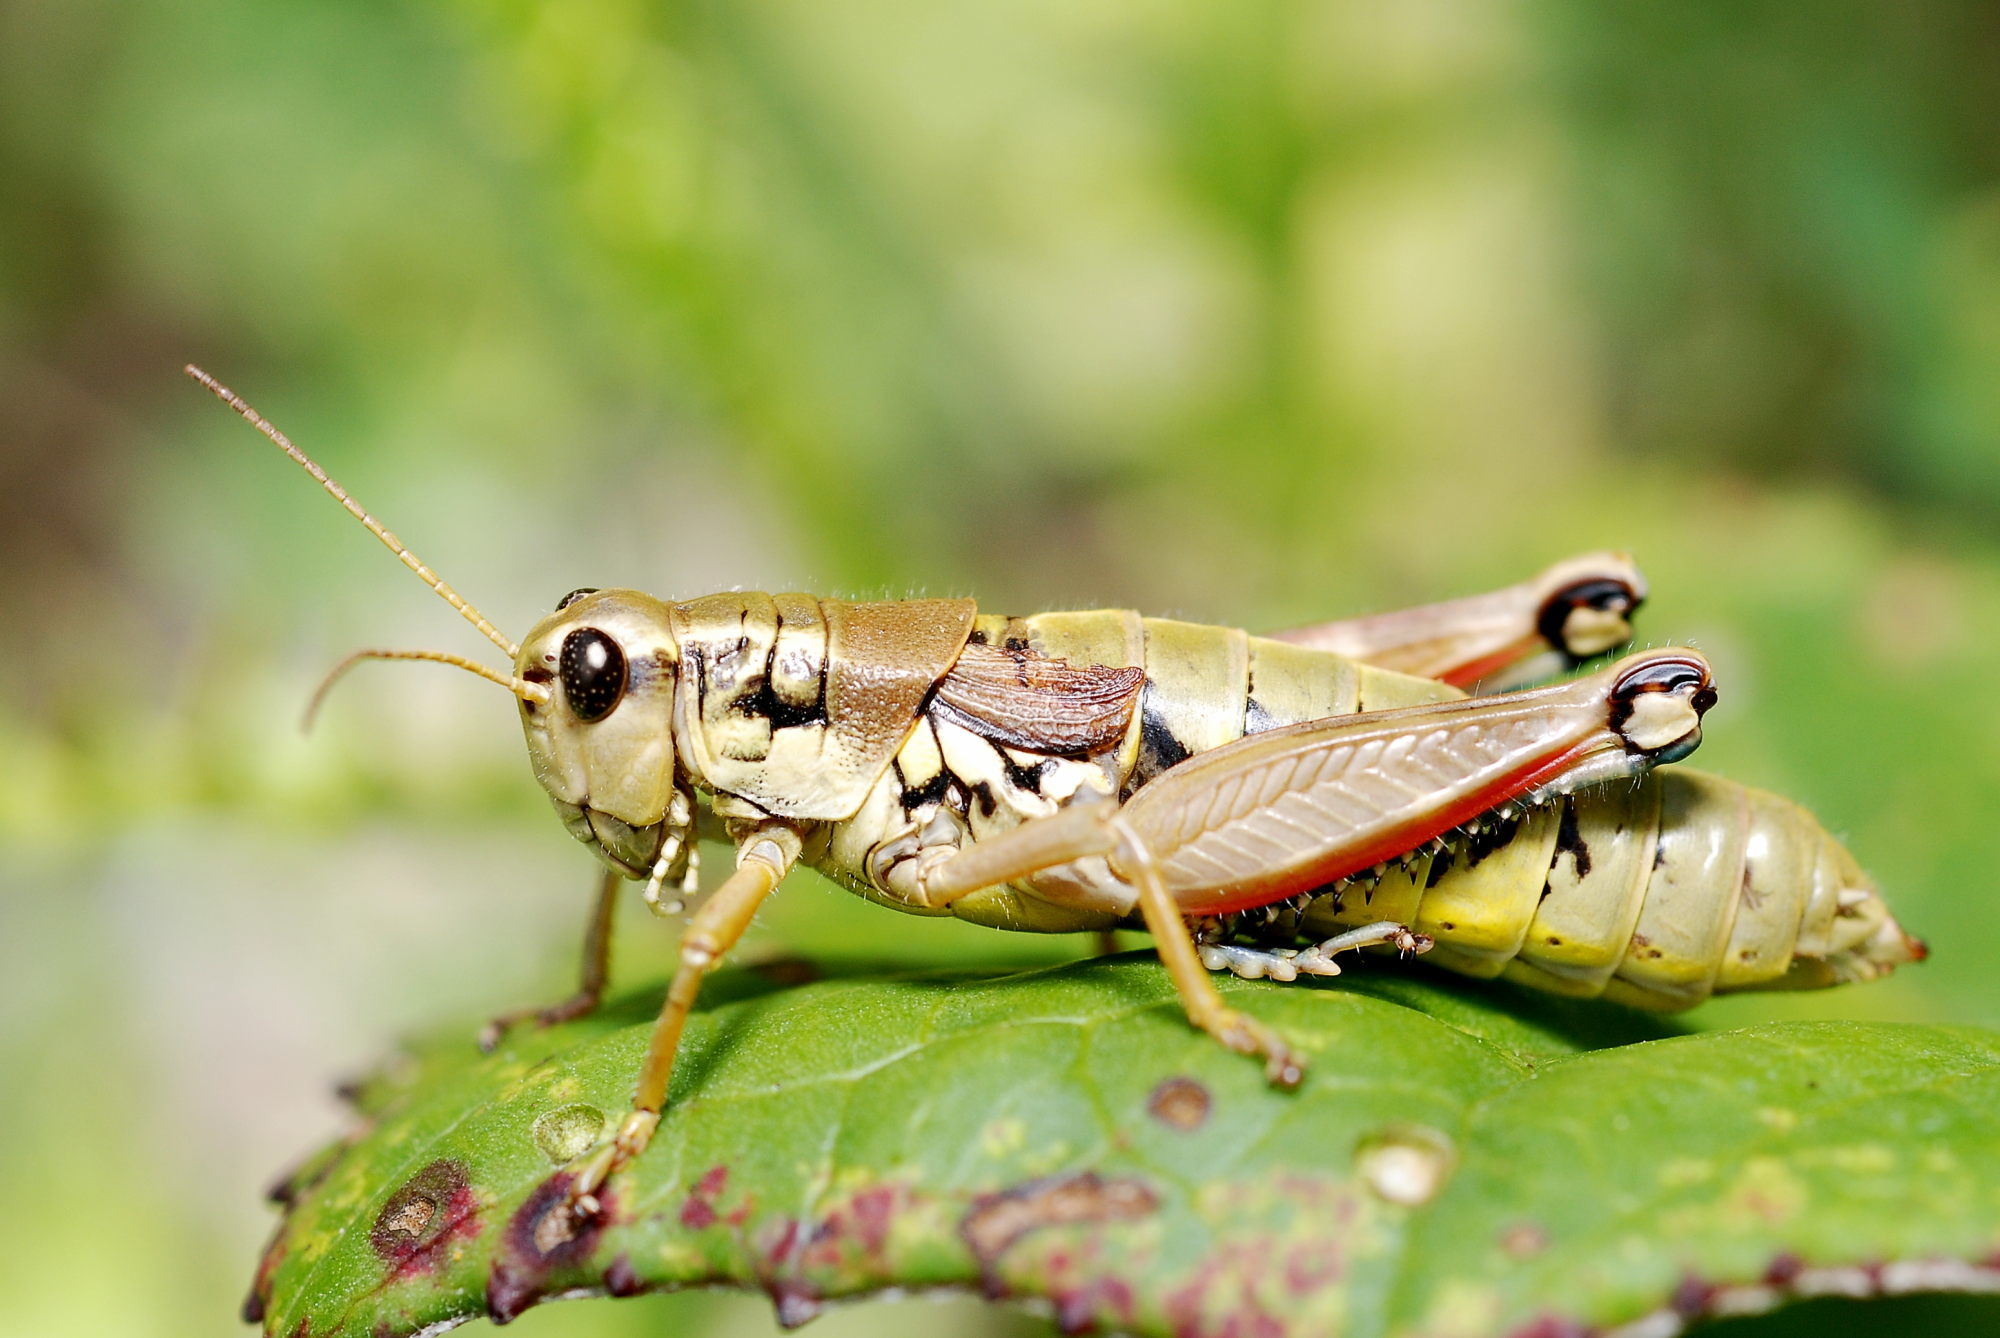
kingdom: Animalia
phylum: Arthropoda
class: Insecta
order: Orthoptera
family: Acrididae
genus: Podisma
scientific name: Podisma pedestris
